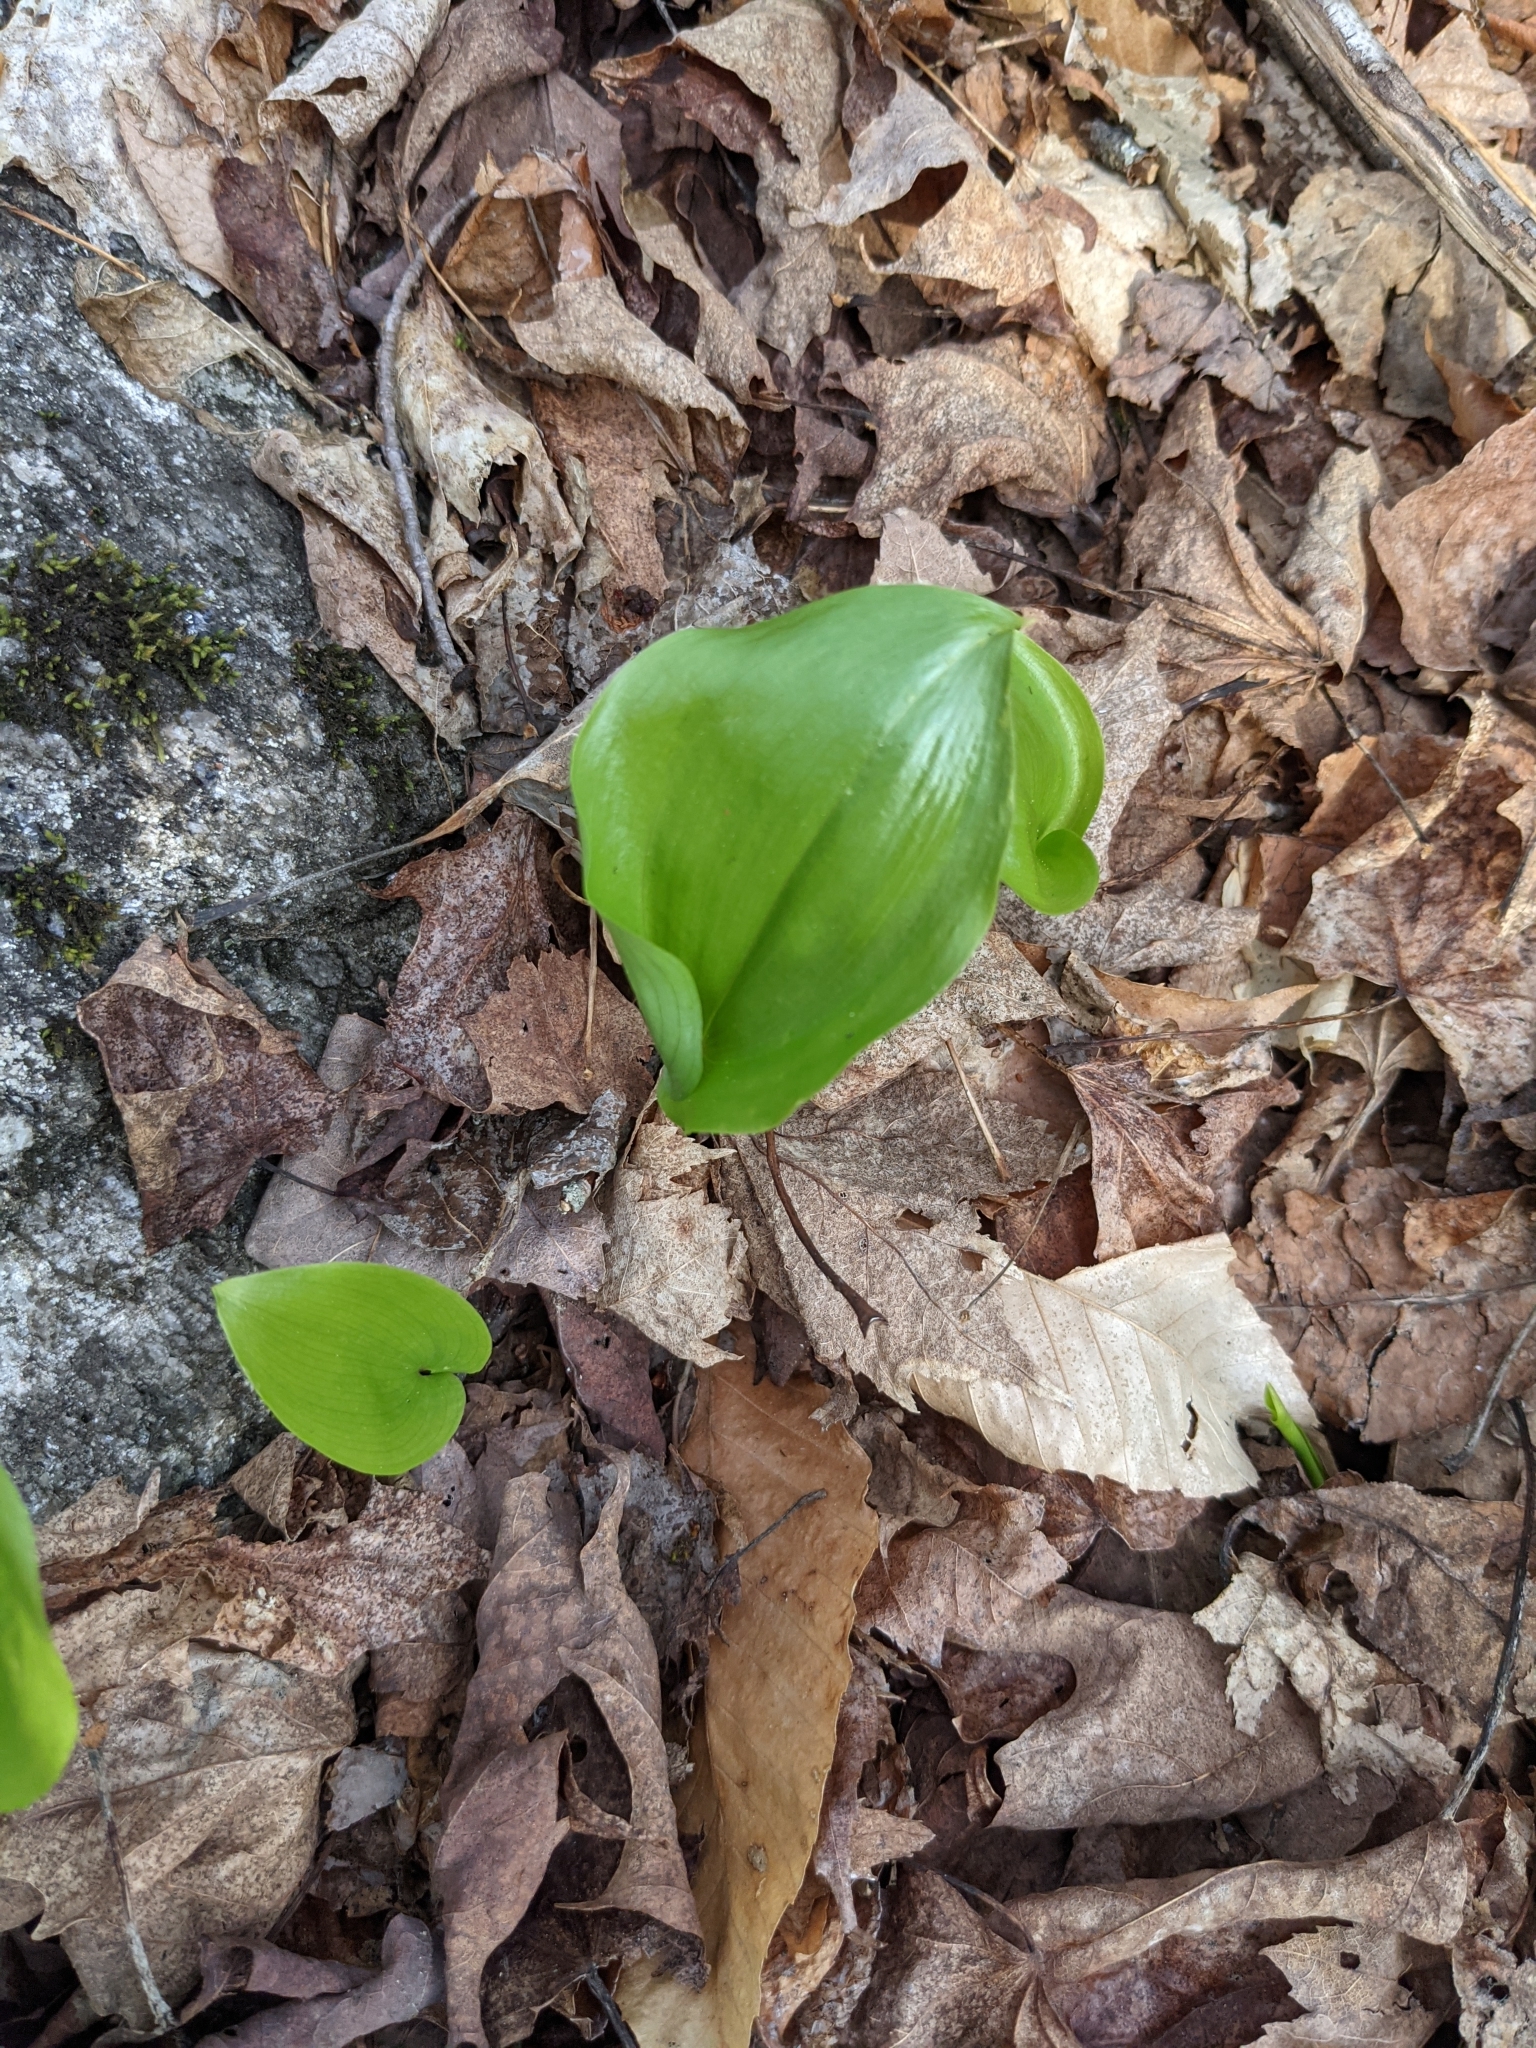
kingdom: Plantae
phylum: Tracheophyta
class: Liliopsida
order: Asparagales
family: Asparagaceae
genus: Maianthemum
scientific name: Maianthemum canadense
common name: False lily-of-the-valley
